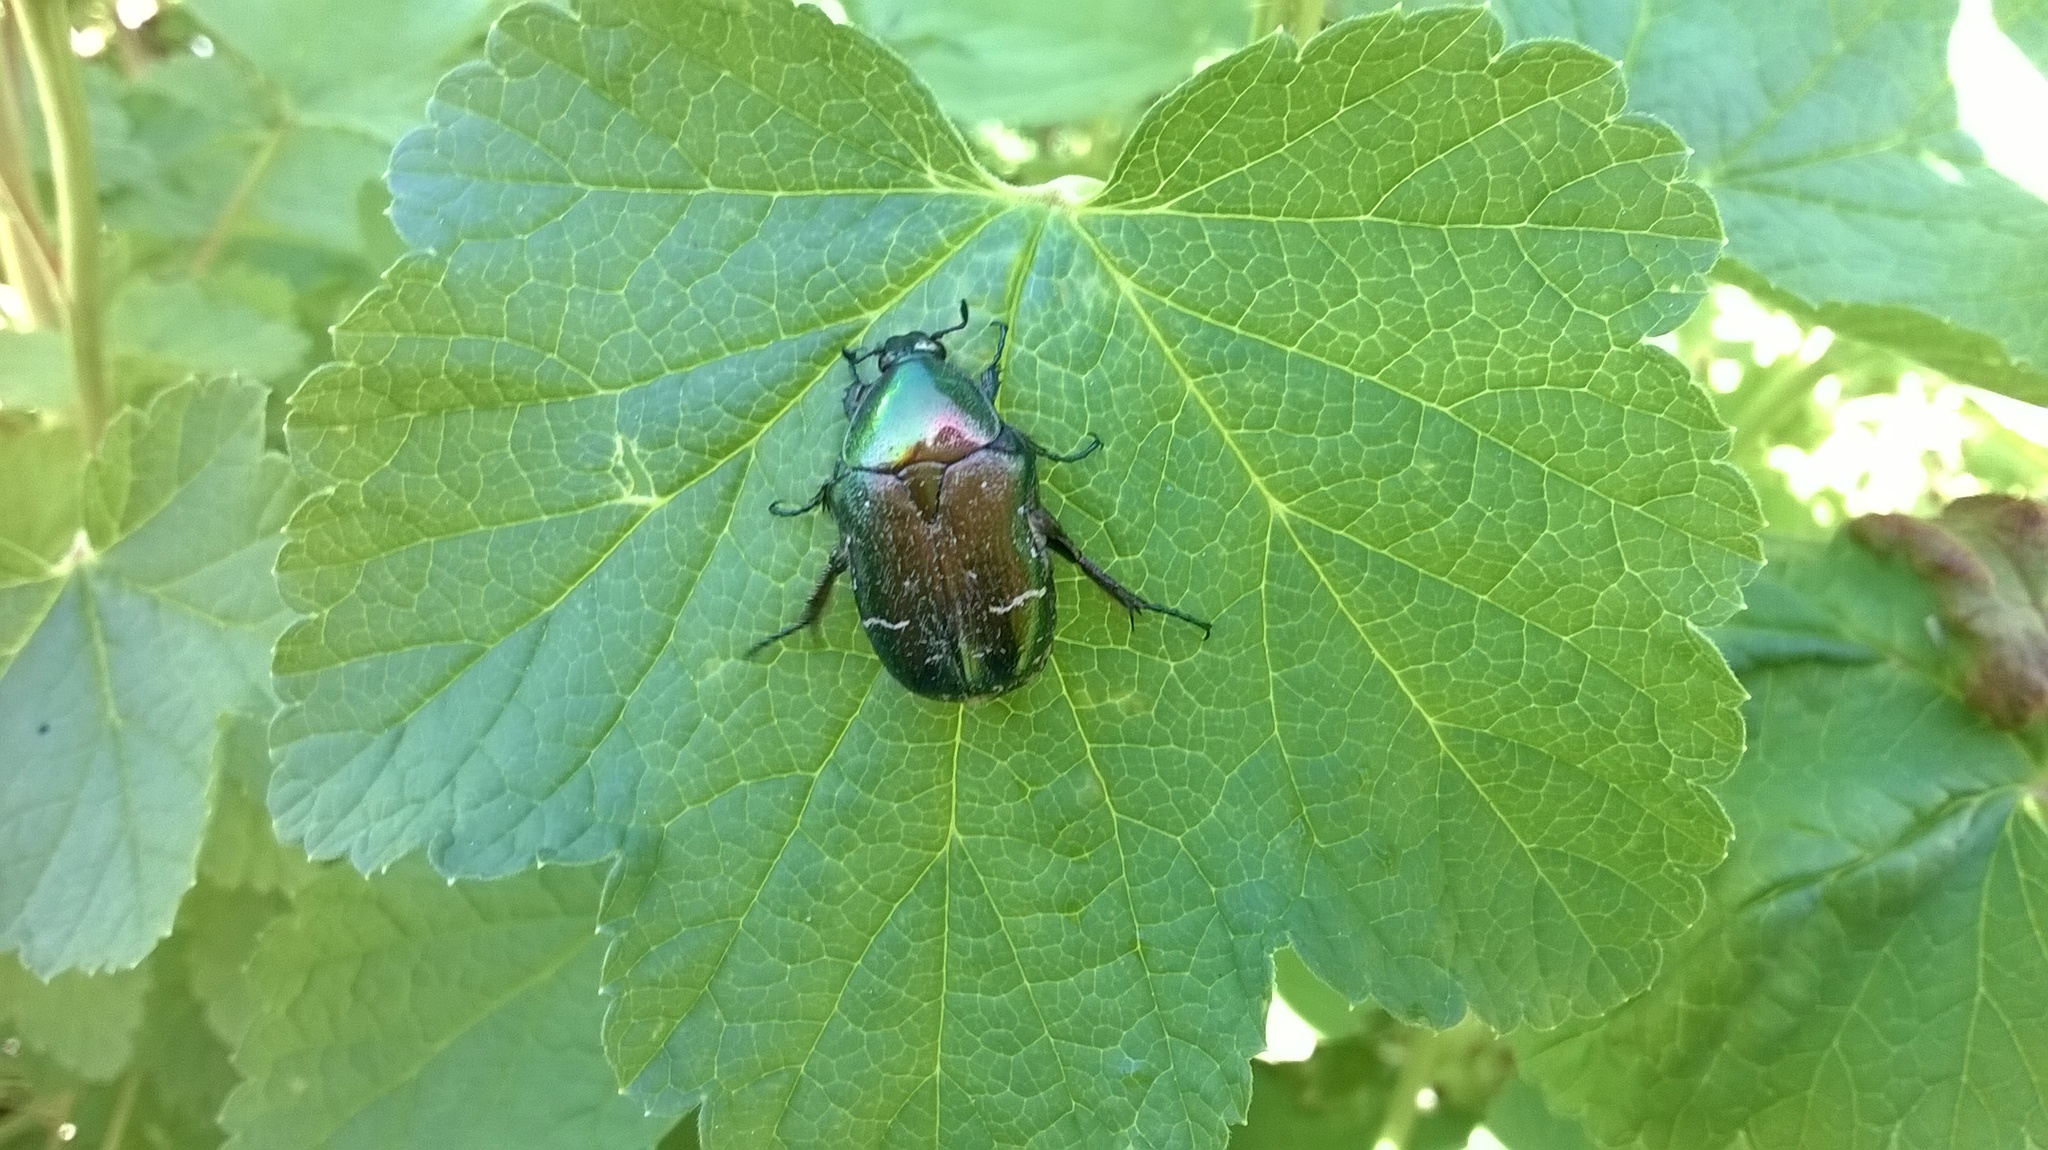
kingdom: Animalia
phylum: Arthropoda
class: Insecta
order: Coleoptera
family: Scarabaeidae
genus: Cetonia
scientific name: Cetonia aurata
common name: Rose chafer
